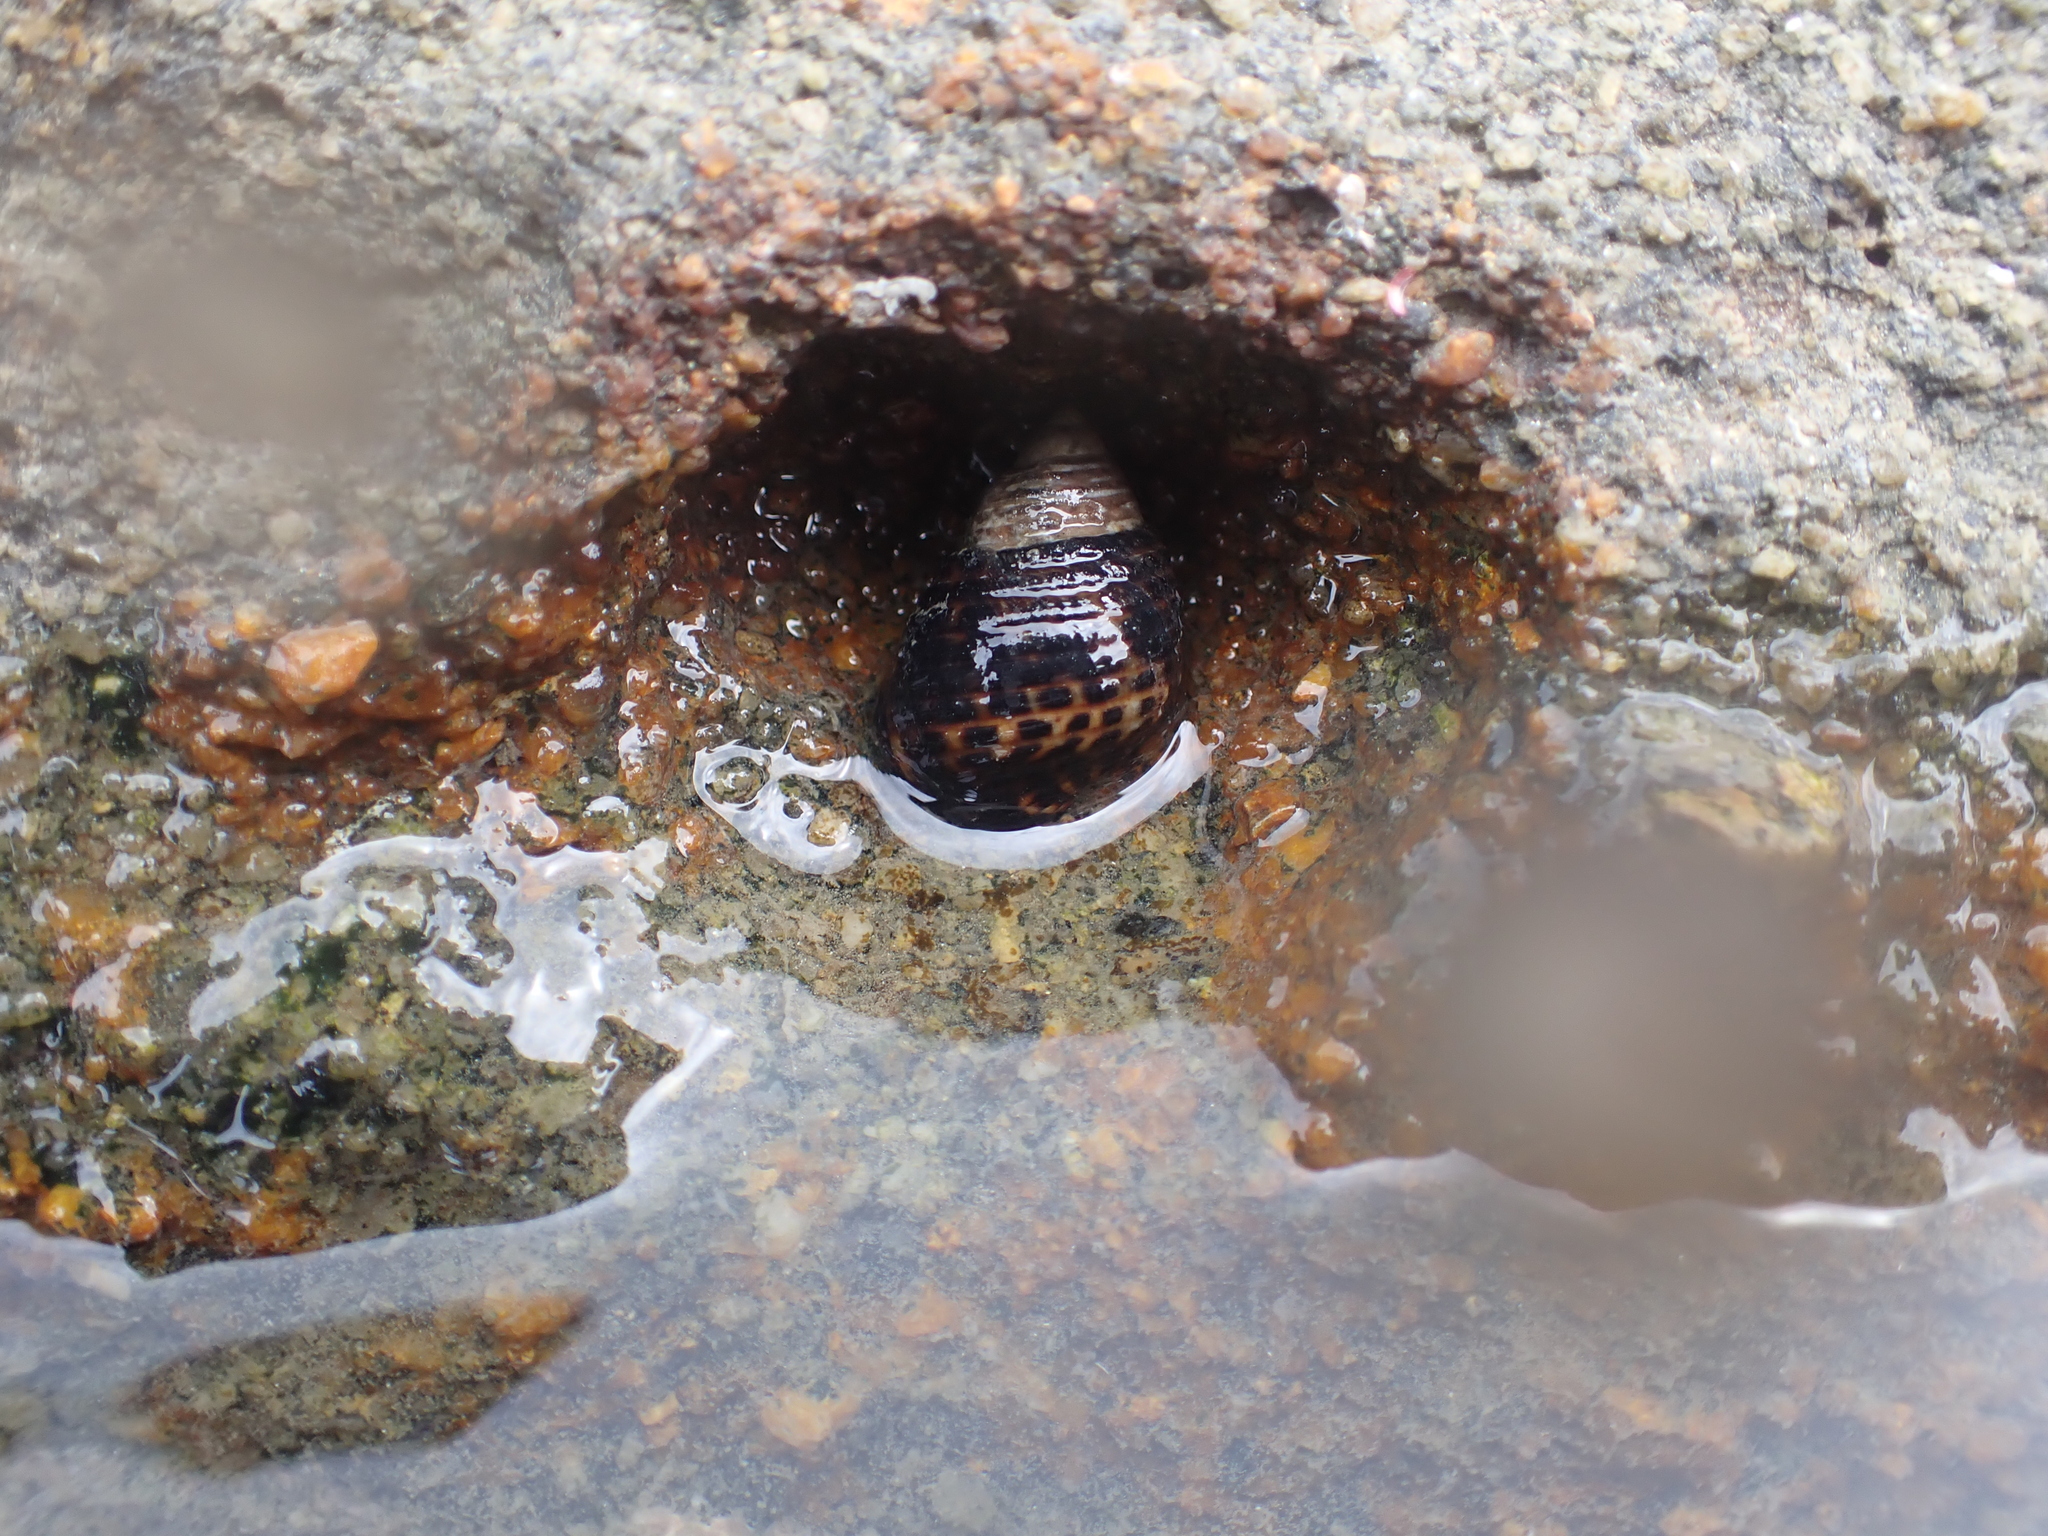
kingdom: Animalia
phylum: Mollusca
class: Gastropoda
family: Planaxidae
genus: Planaxis
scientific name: Planaxis sulcatus
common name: Furrowed planaxis
